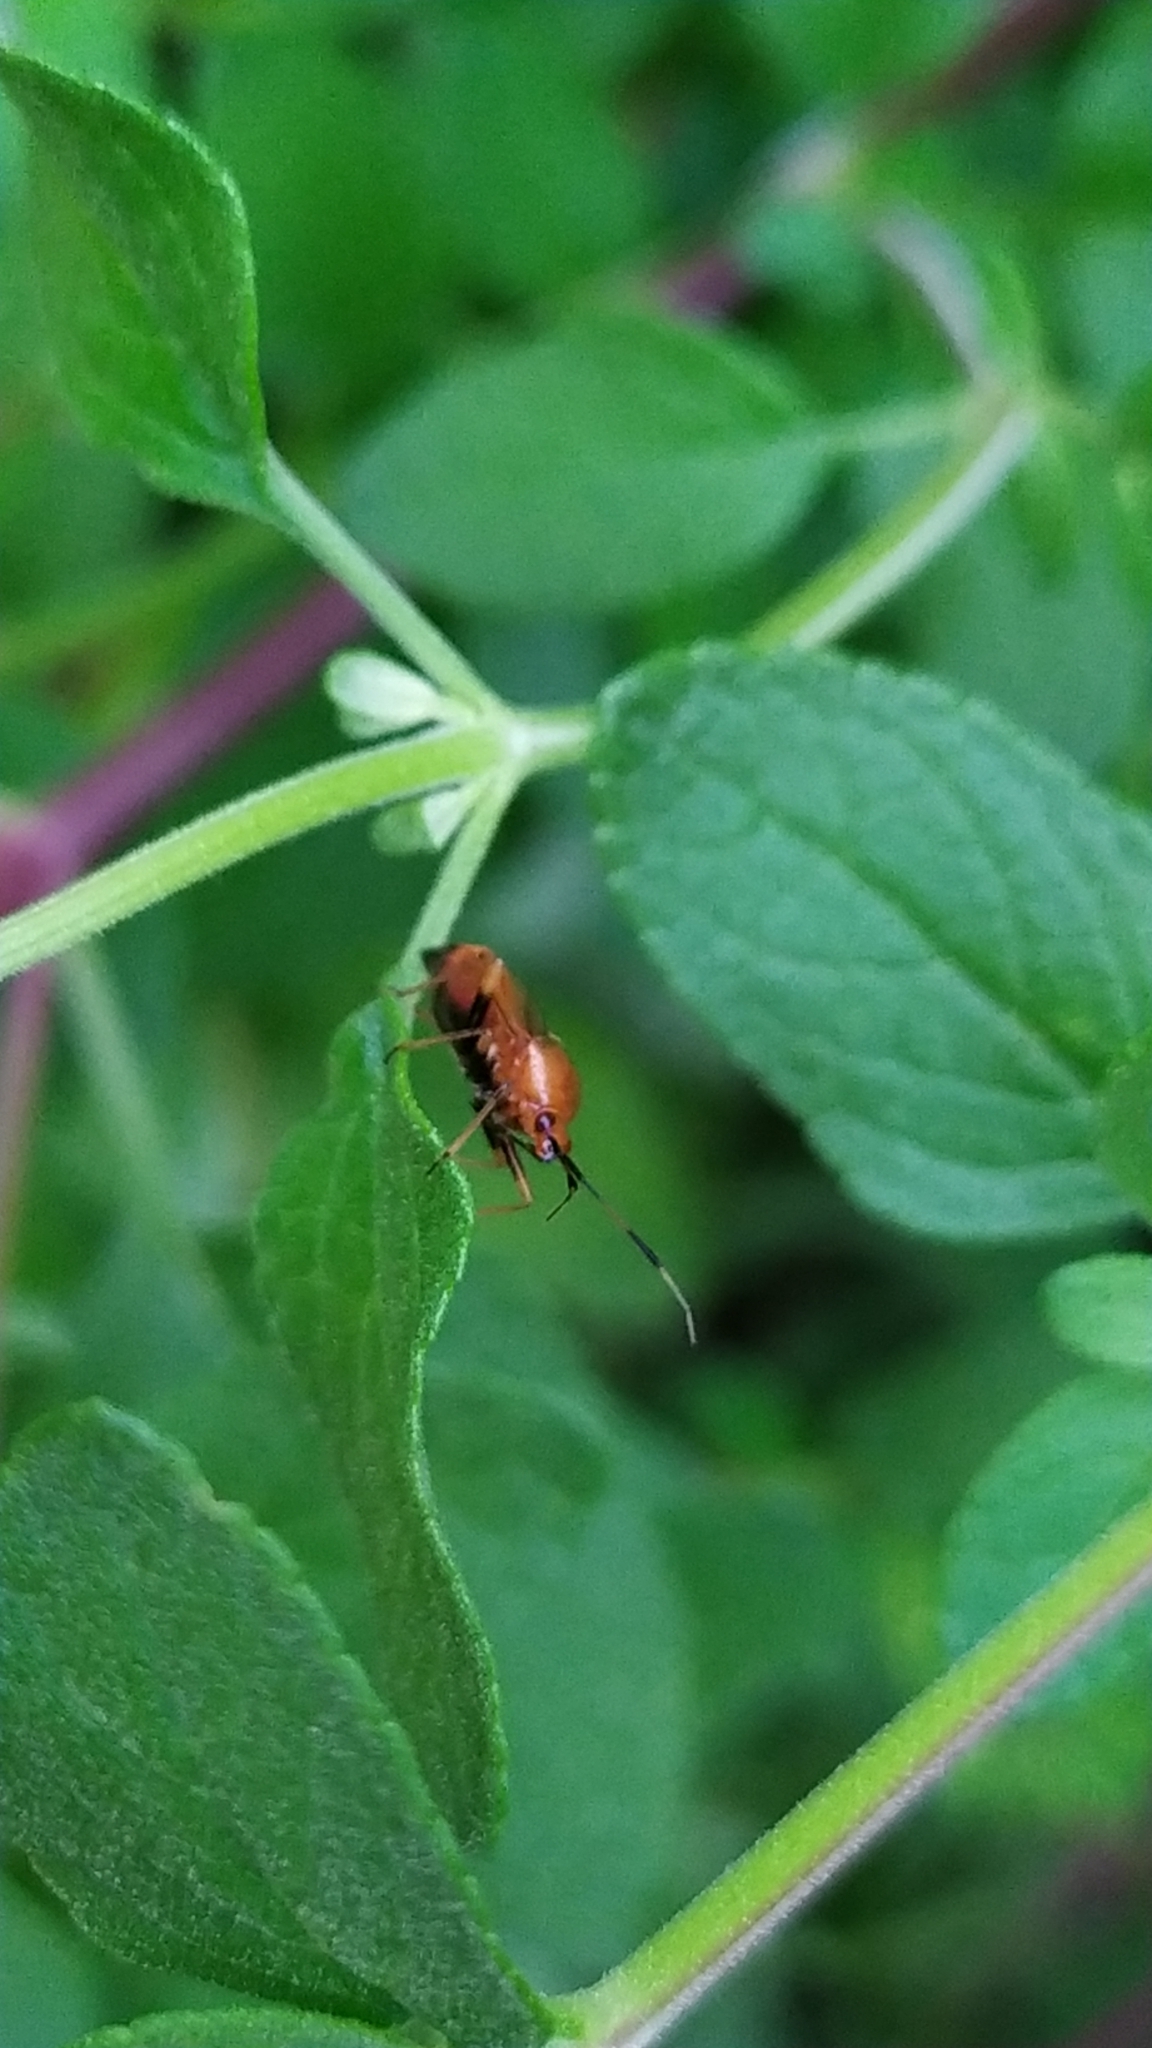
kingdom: Animalia
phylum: Arthropoda
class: Insecta
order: Hemiptera
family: Miridae
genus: Deraeocoris
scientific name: Deraeocoris ruber
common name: Plant bug
